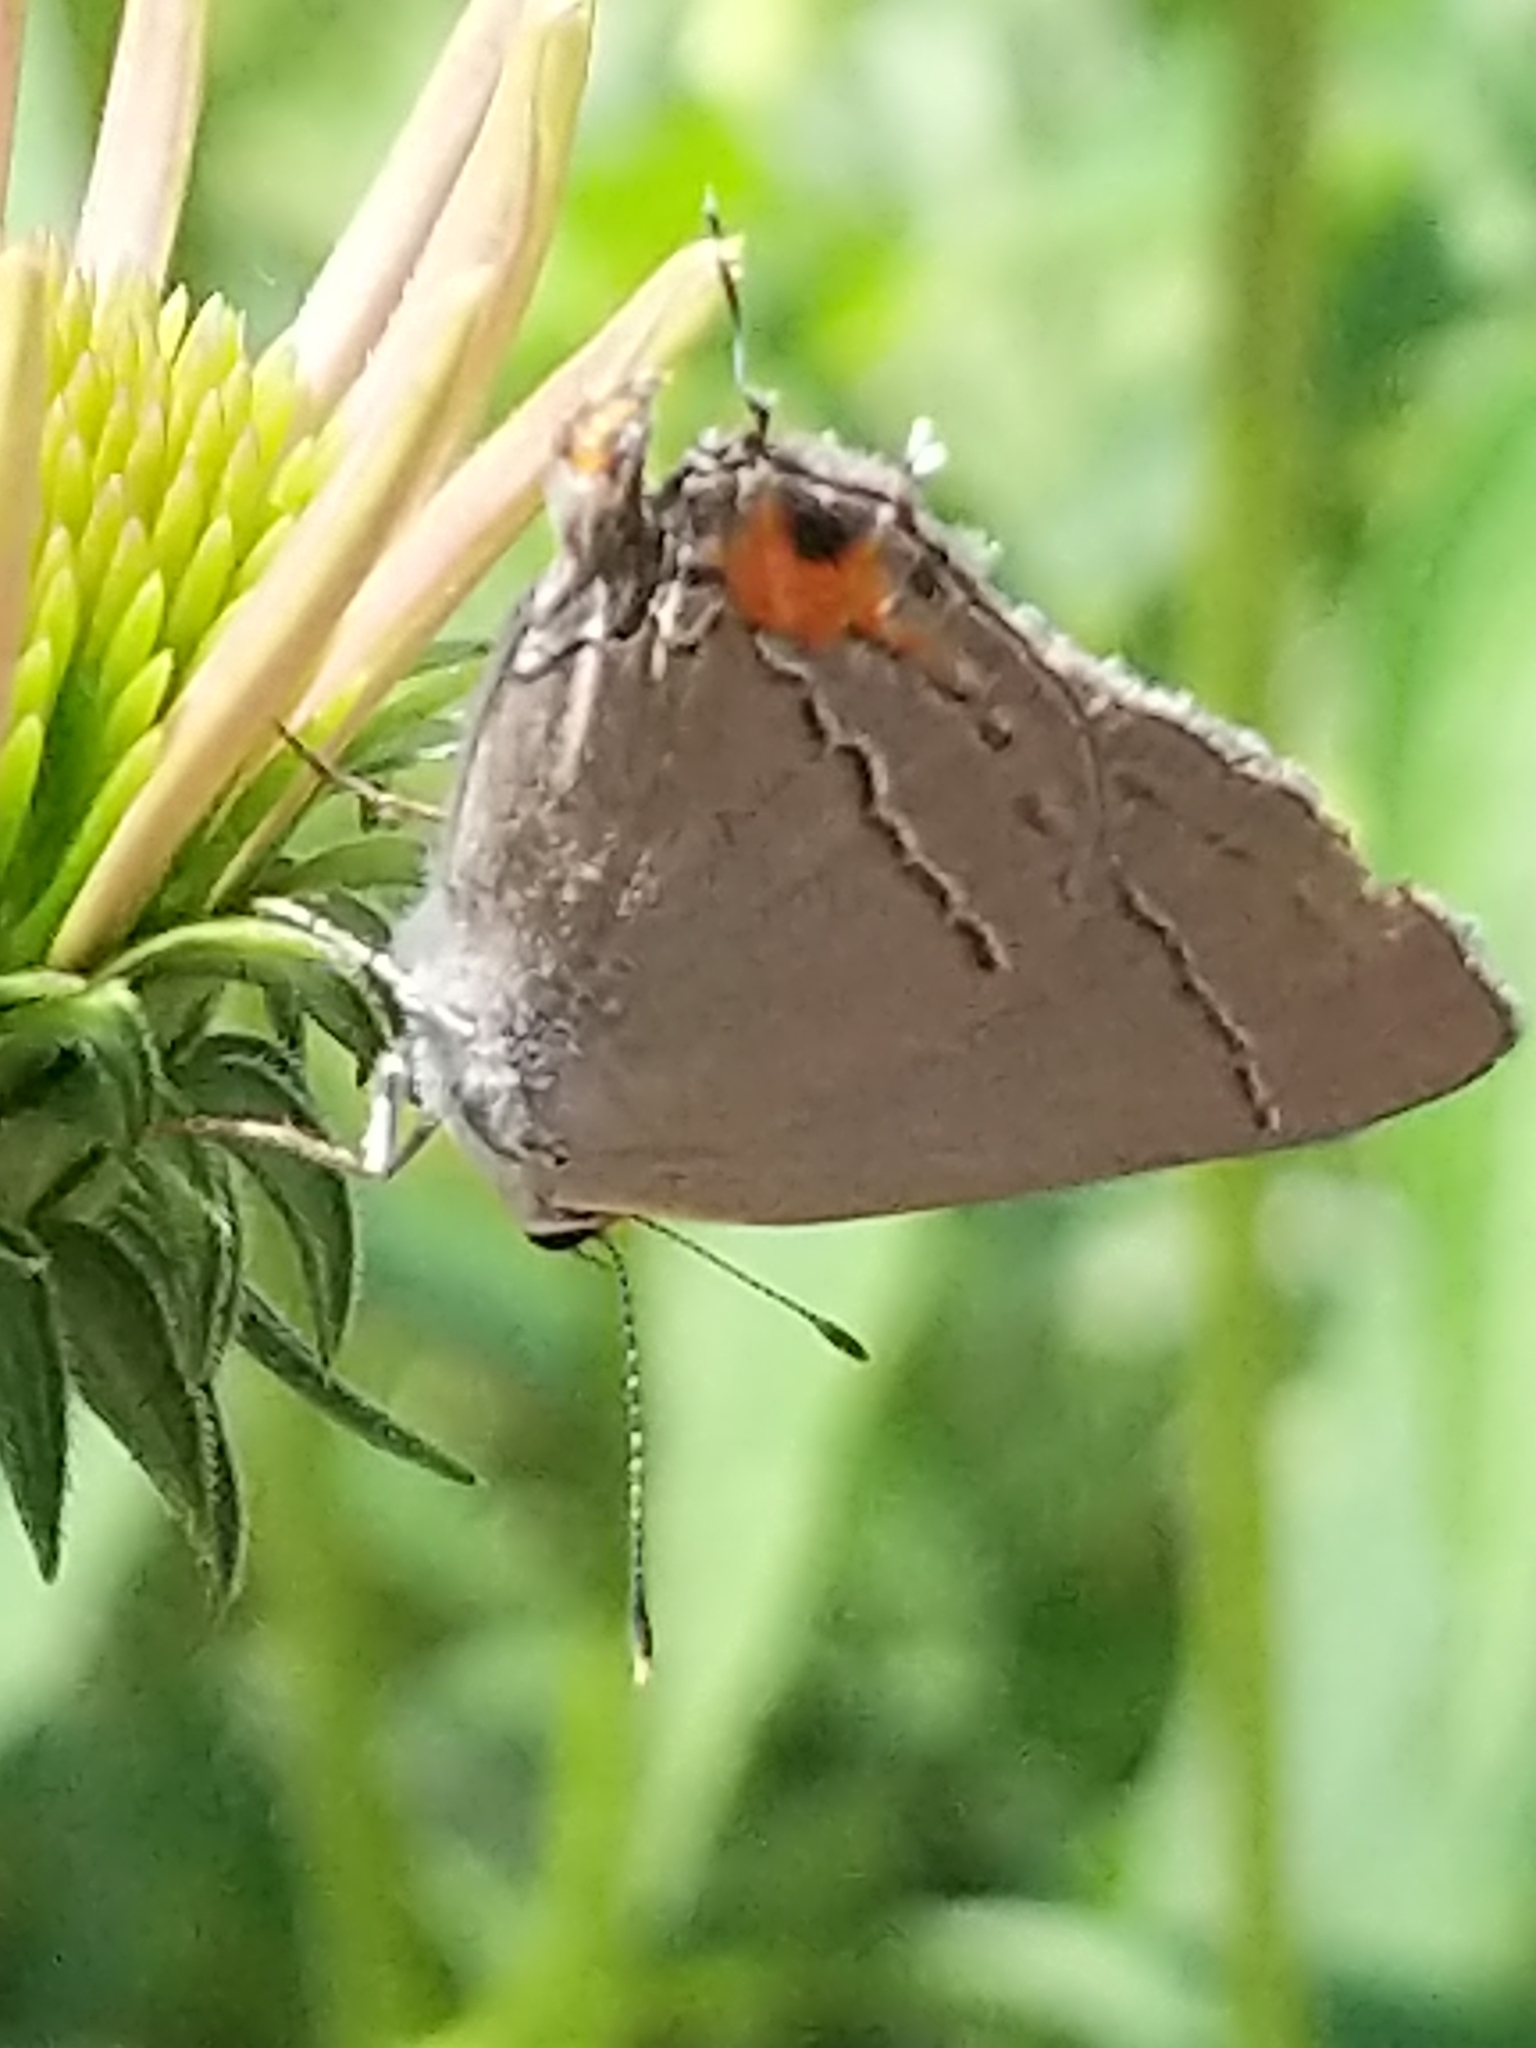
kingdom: Animalia
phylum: Arthropoda
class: Insecta
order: Lepidoptera
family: Lycaenidae
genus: Strymon
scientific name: Strymon melinus
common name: Gray hairstreak
